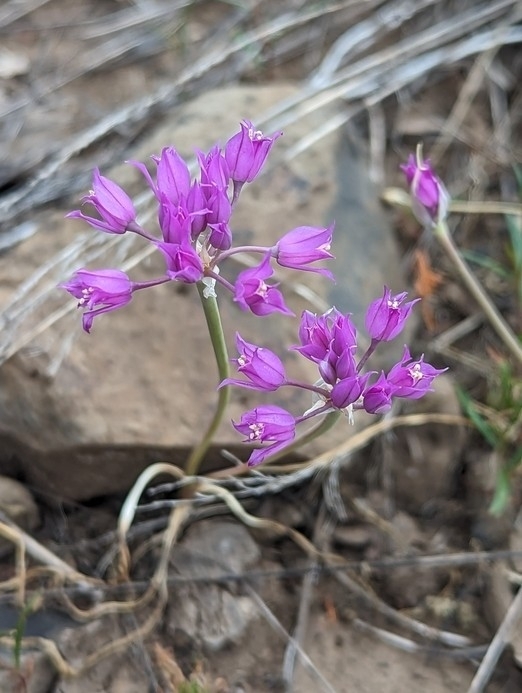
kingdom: Plantae
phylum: Tracheophyta
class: Liliopsida
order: Asparagales
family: Amaryllidaceae
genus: Allium
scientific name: Allium acuminatum
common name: Hooker's onion
